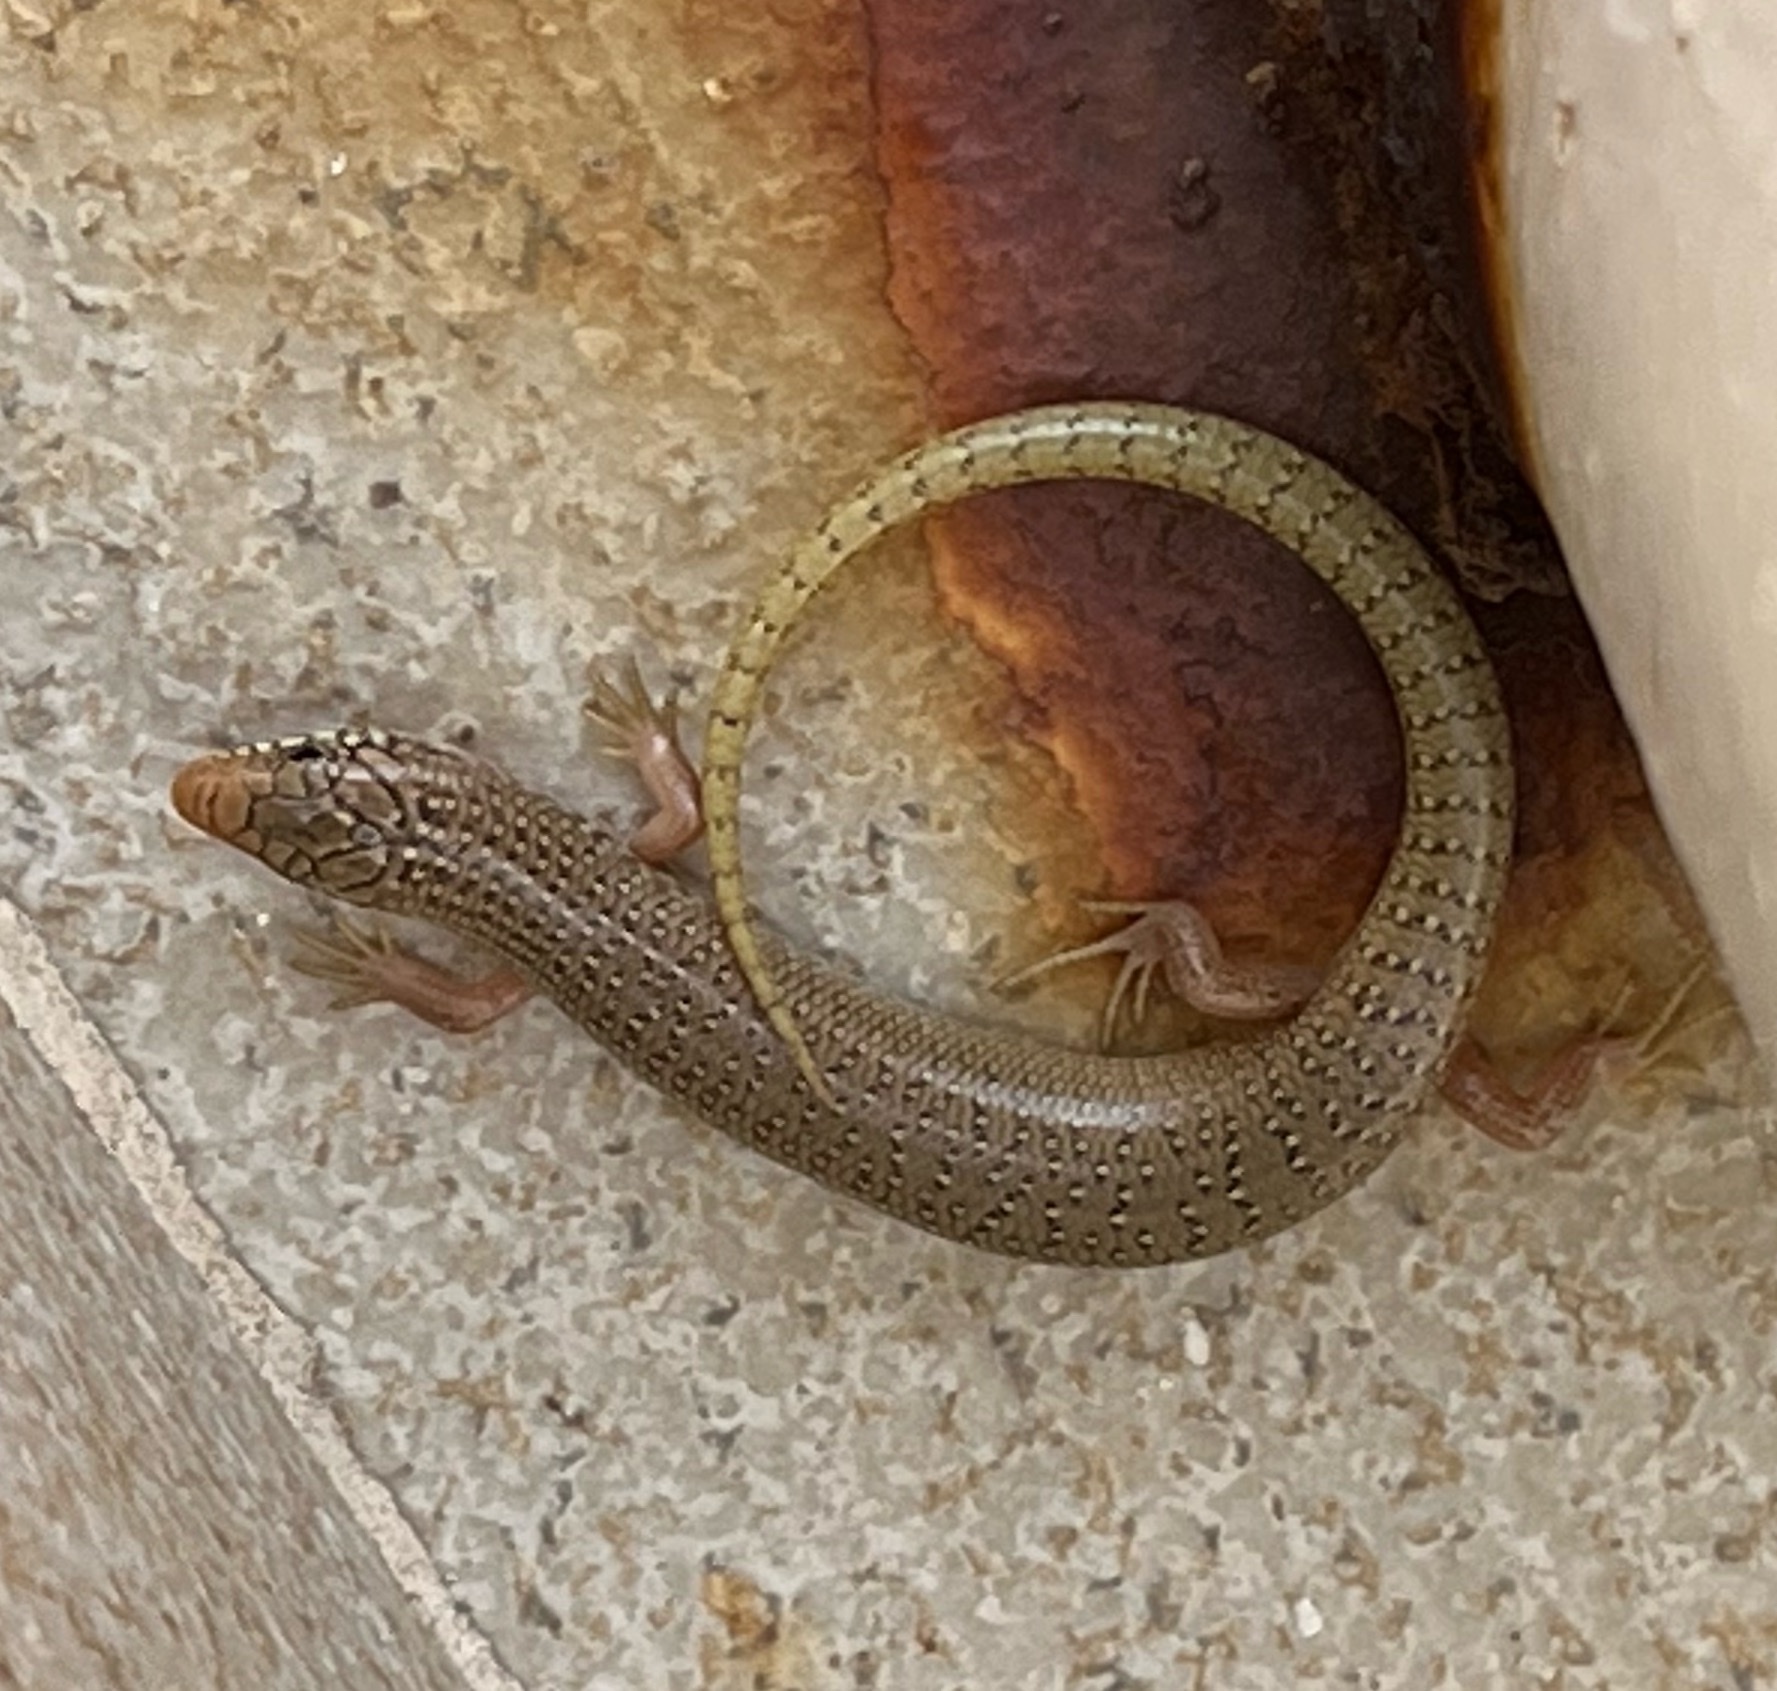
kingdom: Animalia
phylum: Chordata
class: Squamata
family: Scincidae
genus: Chalcides
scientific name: Chalcides ocellatus
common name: Ocellated skink
